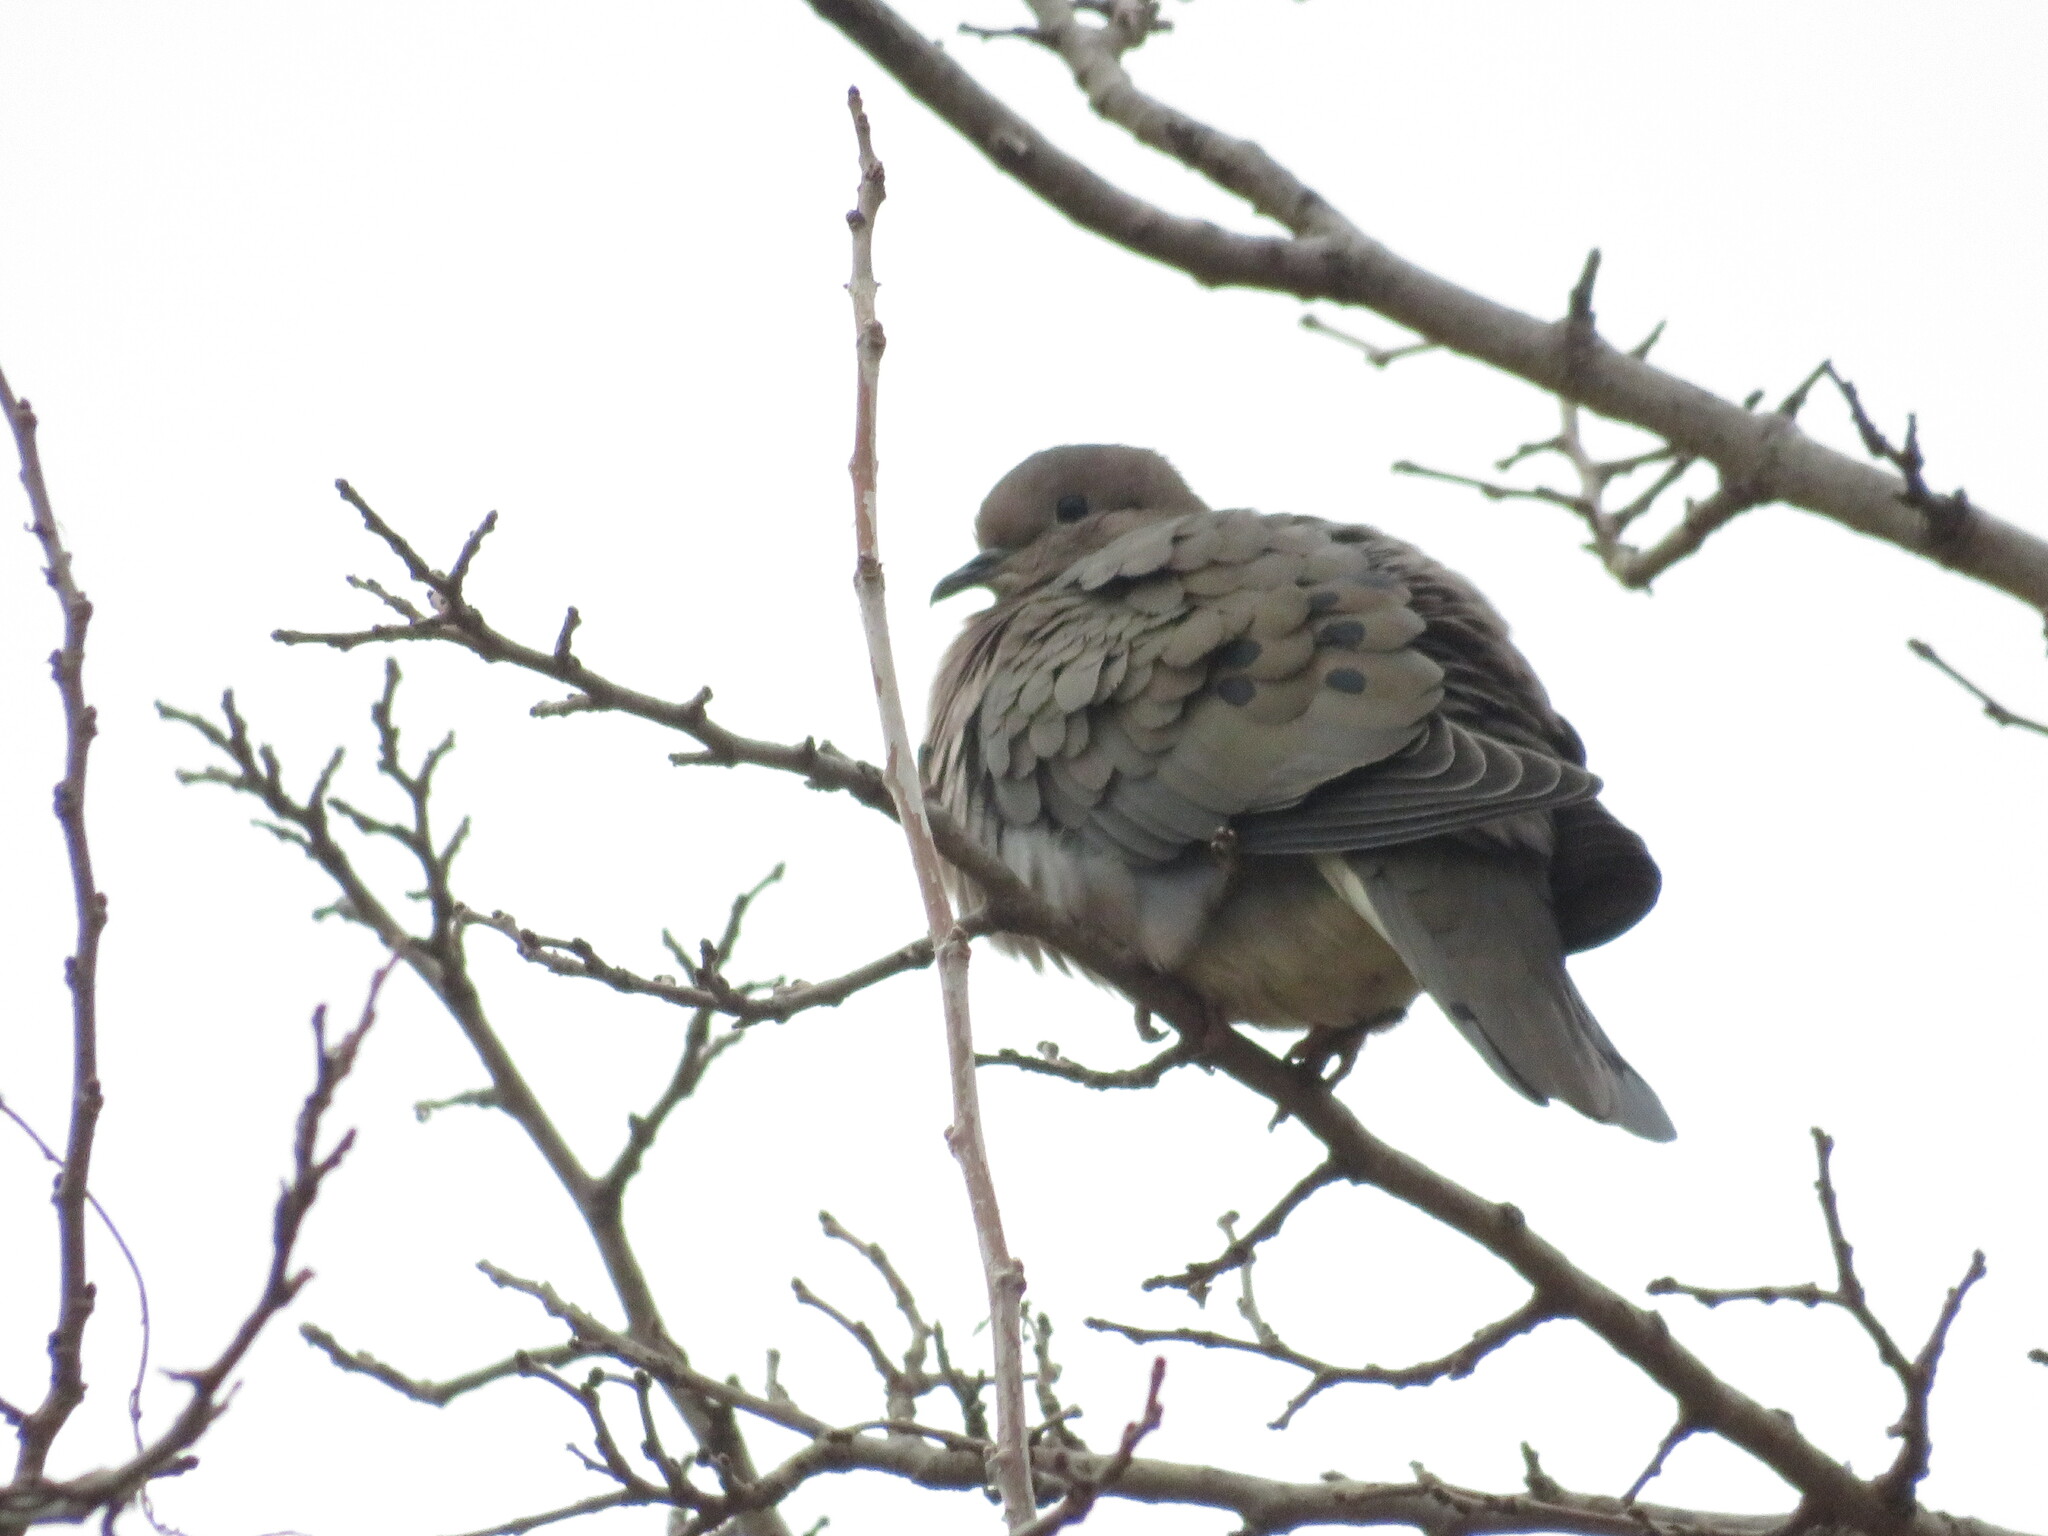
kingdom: Animalia
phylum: Chordata
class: Aves
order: Columbiformes
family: Columbidae
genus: Zenaida
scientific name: Zenaida auriculata
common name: Eared dove
